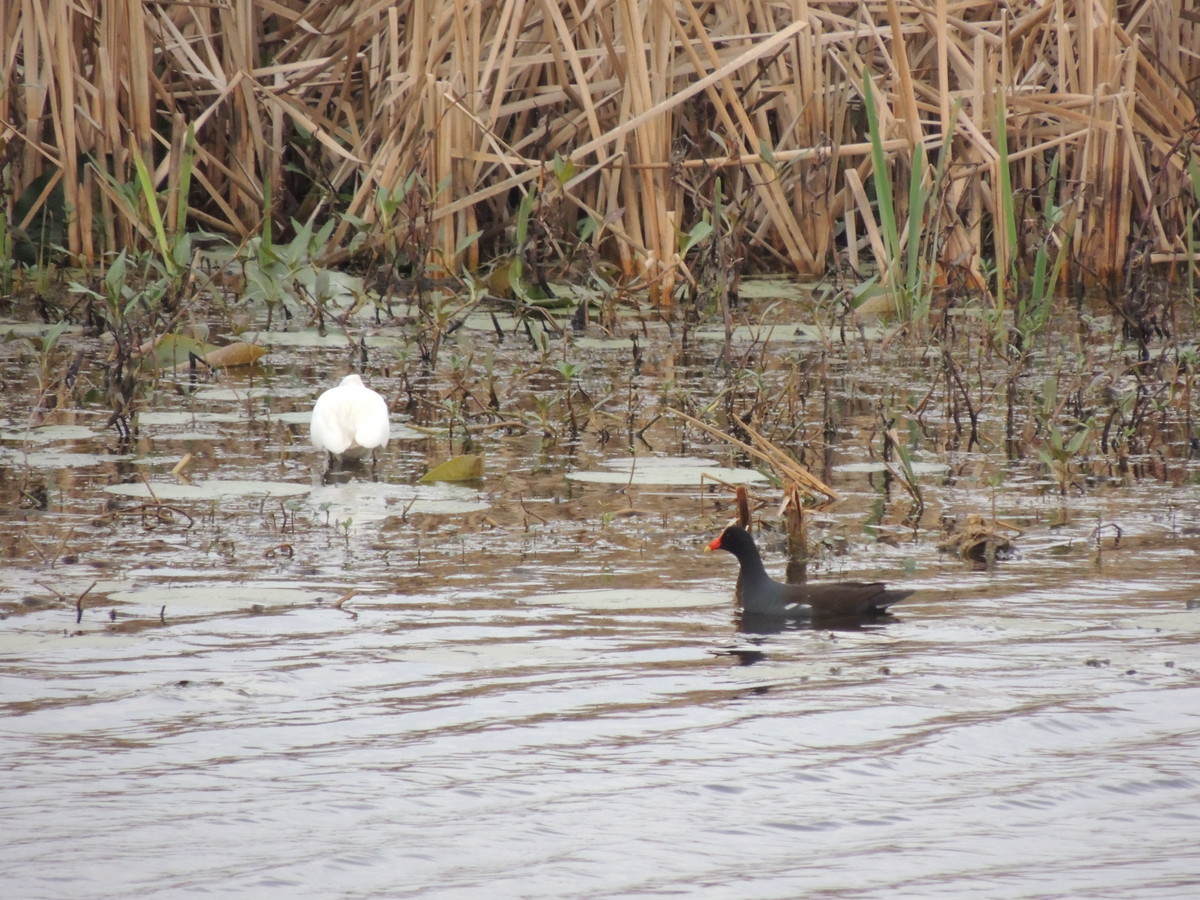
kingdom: Animalia
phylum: Chordata
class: Aves
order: Gruiformes
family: Rallidae
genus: Gallinula
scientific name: Gallinula chloropus
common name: Common moorhen
